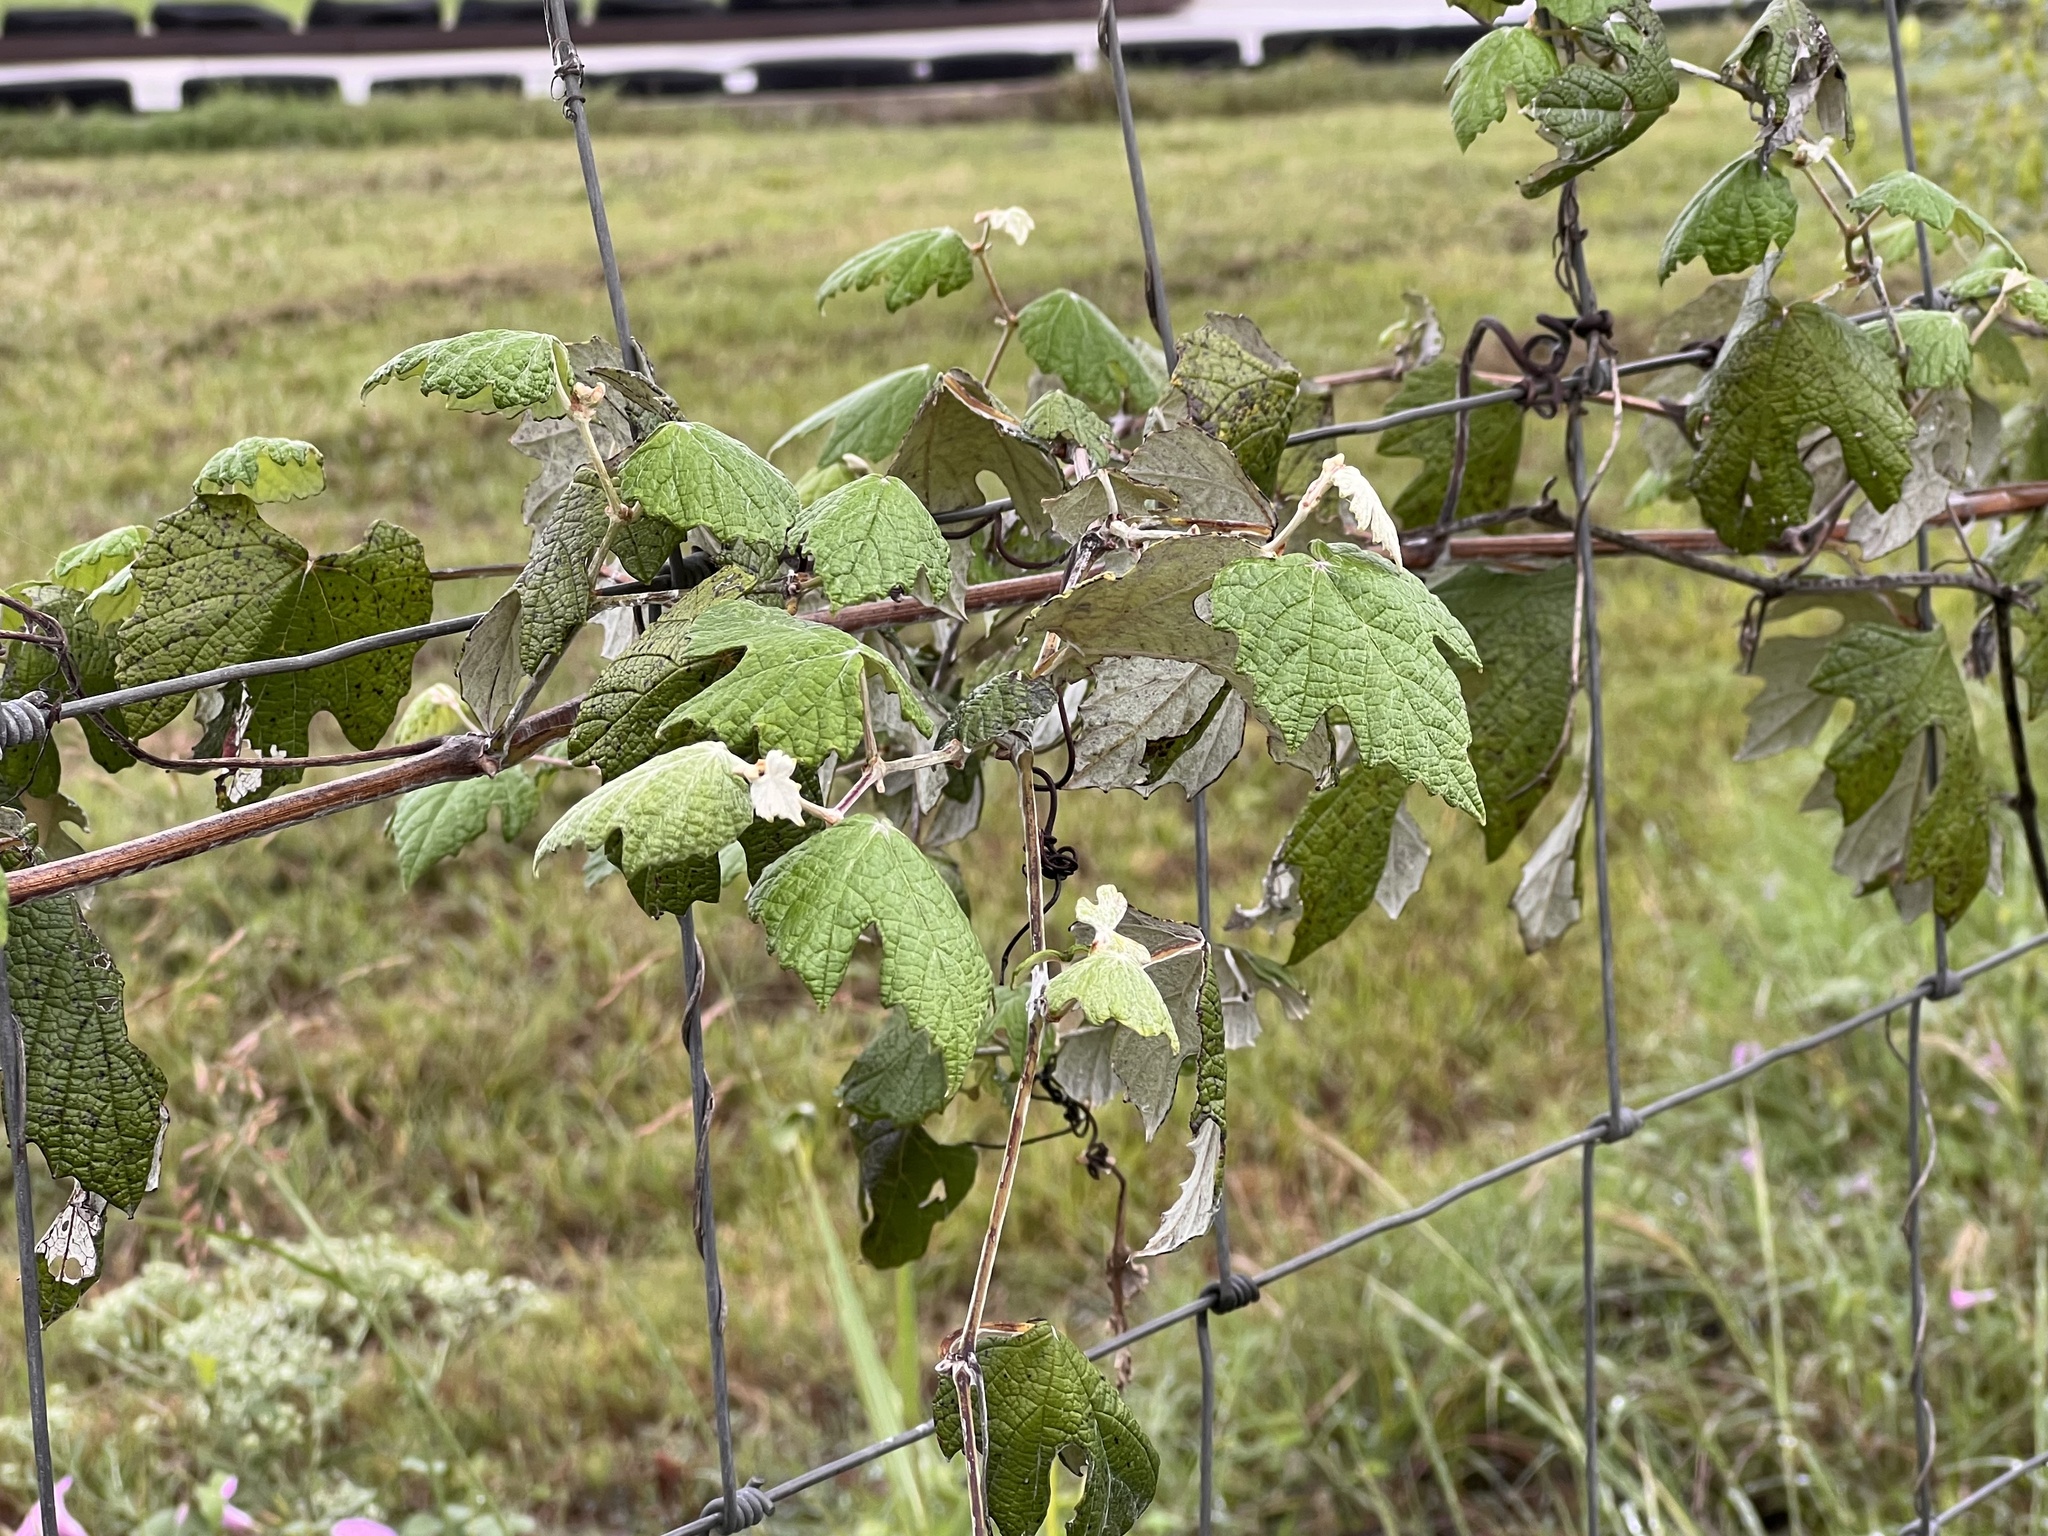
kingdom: Plantae
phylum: Tracheophyta
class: Magnoliopsida
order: Vitales
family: Vitaceae
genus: Vitis
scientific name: Vitis mustangensis
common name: Mustang grape
